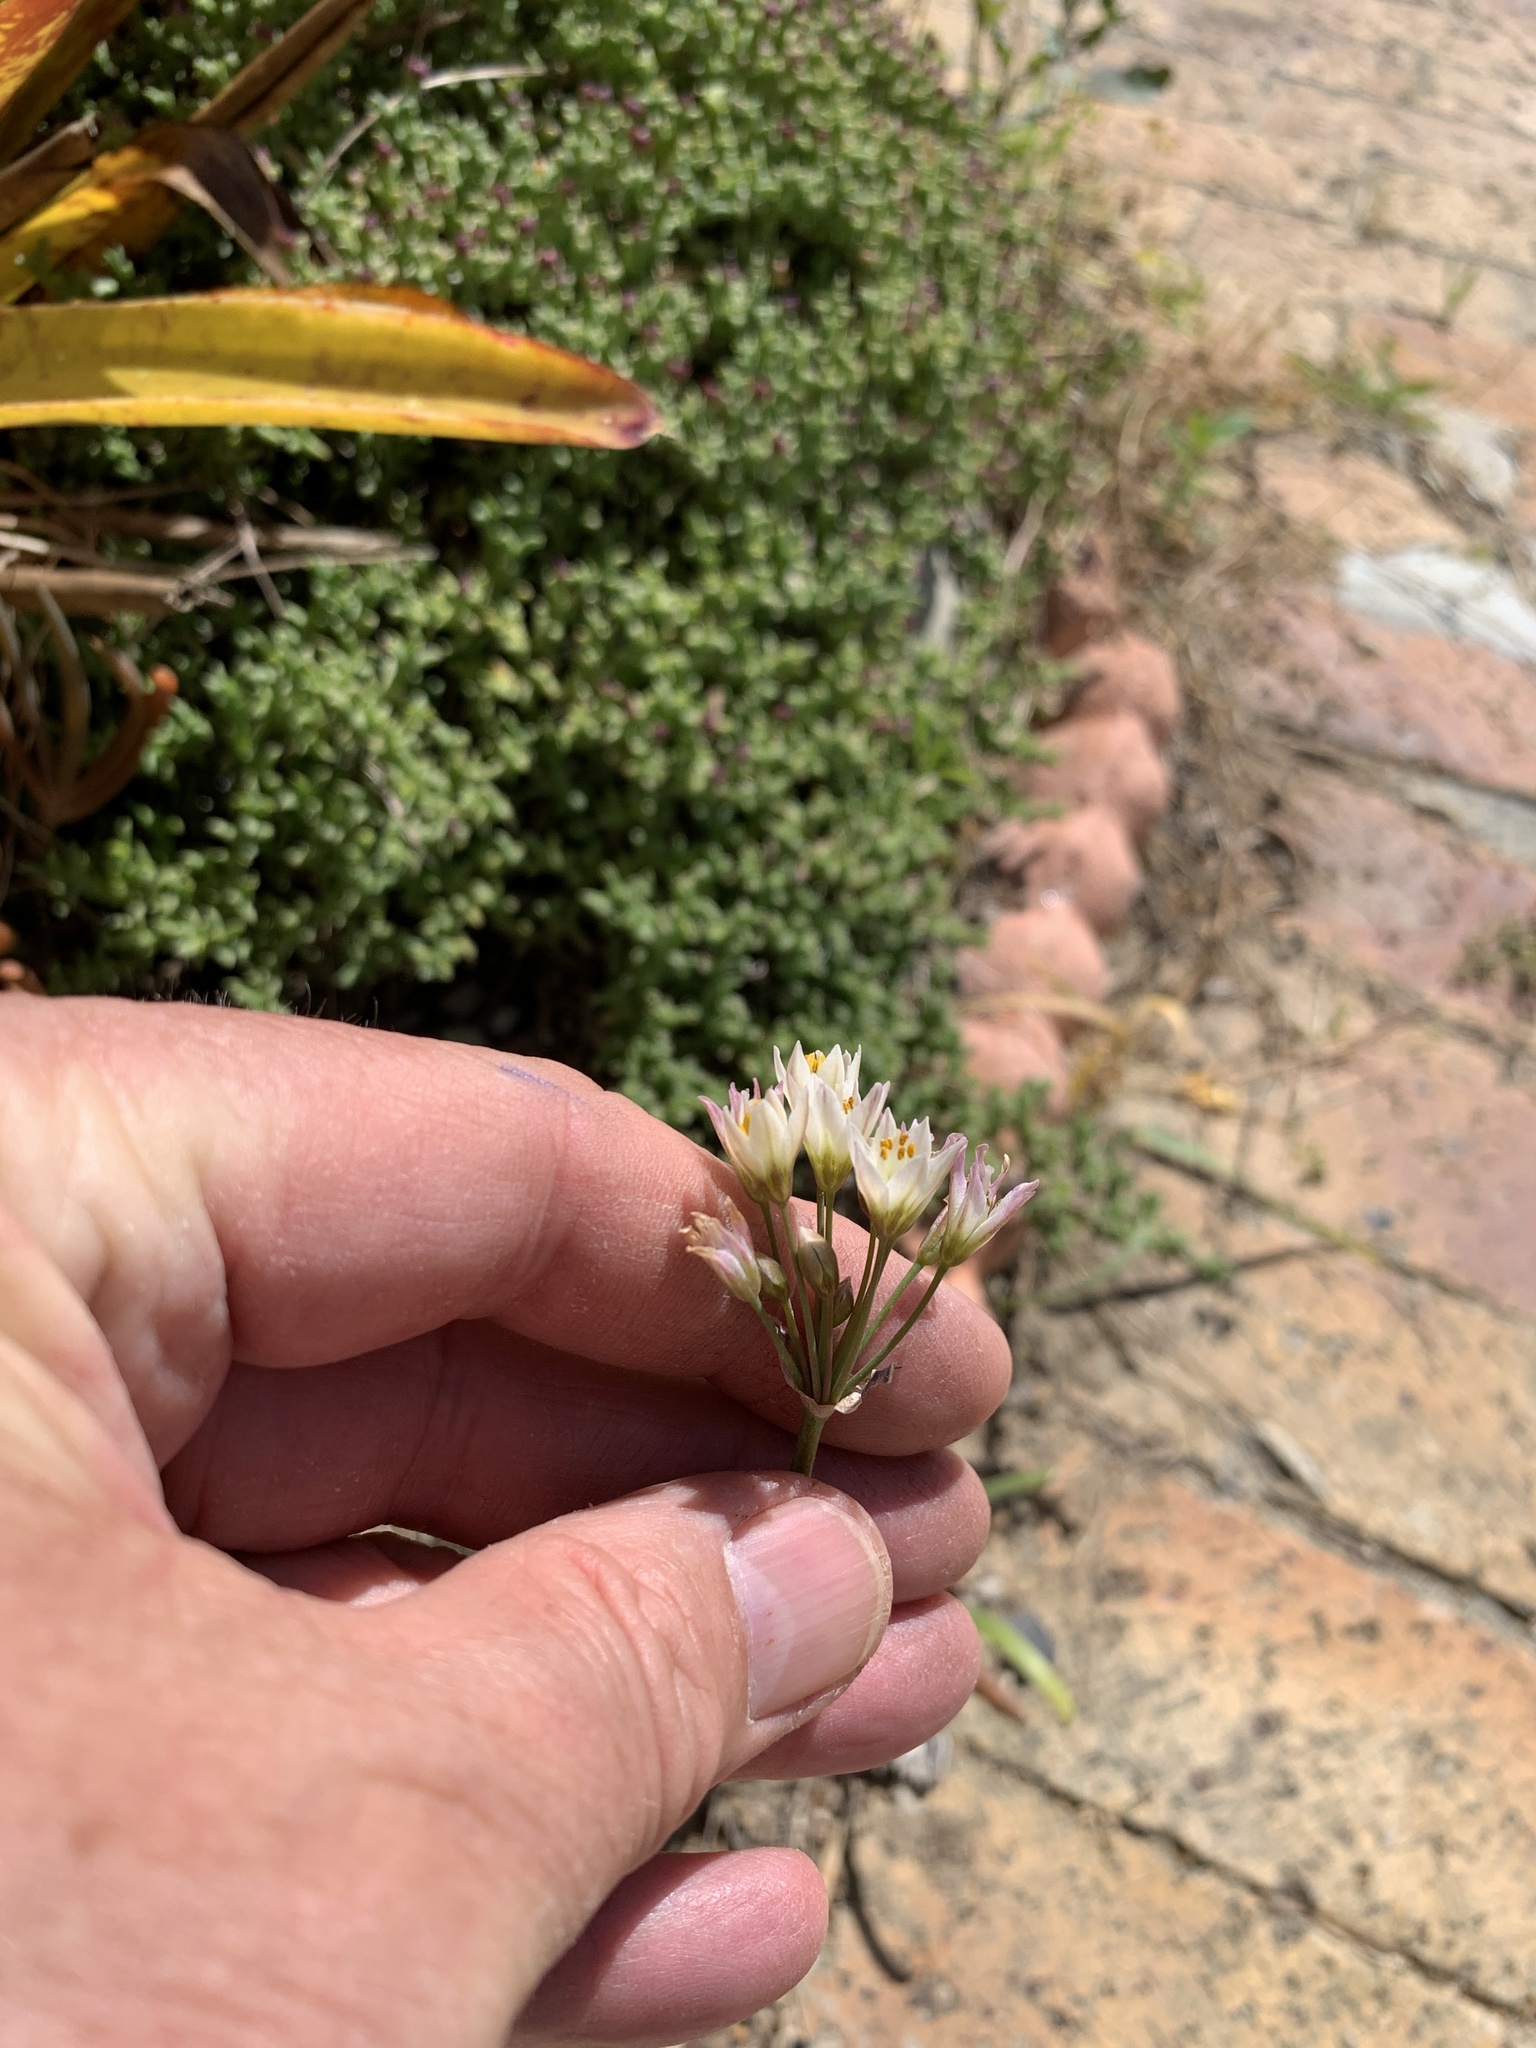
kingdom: Plantae
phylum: Tracheophyta
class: Liliopsida
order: Asparagales
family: Amaryllidaceae
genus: Nothoscordum
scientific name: Nothoscordum gracile
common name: Slender false garlic
